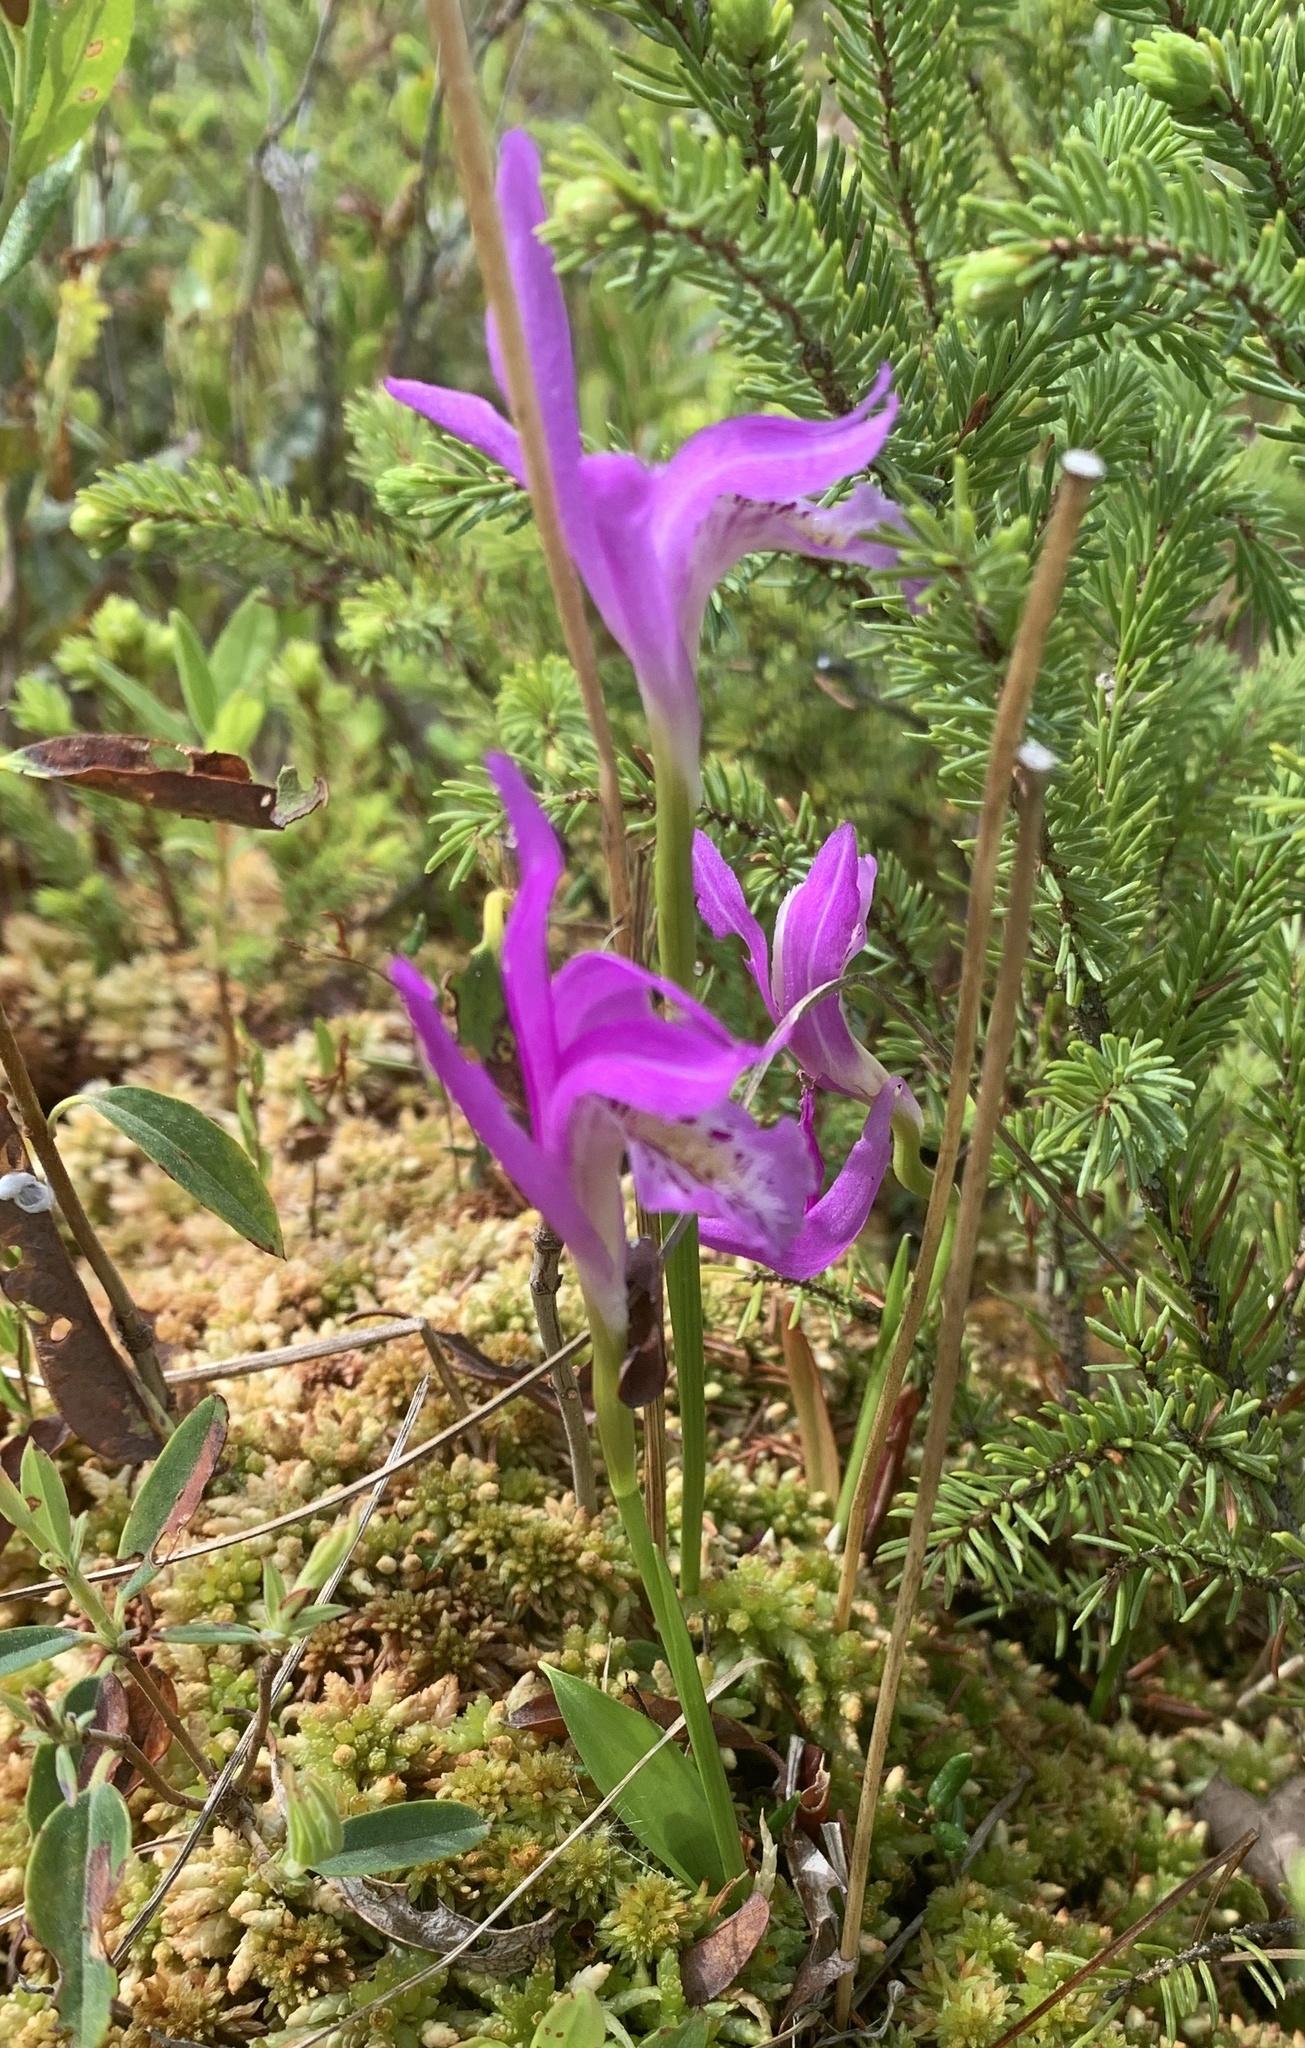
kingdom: Plantae
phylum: Tracheophyta
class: Liliopsida
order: Asparagales
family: Orchidaceae
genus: Arethusa
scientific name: Arethusa bulbosa
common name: Arethusa
